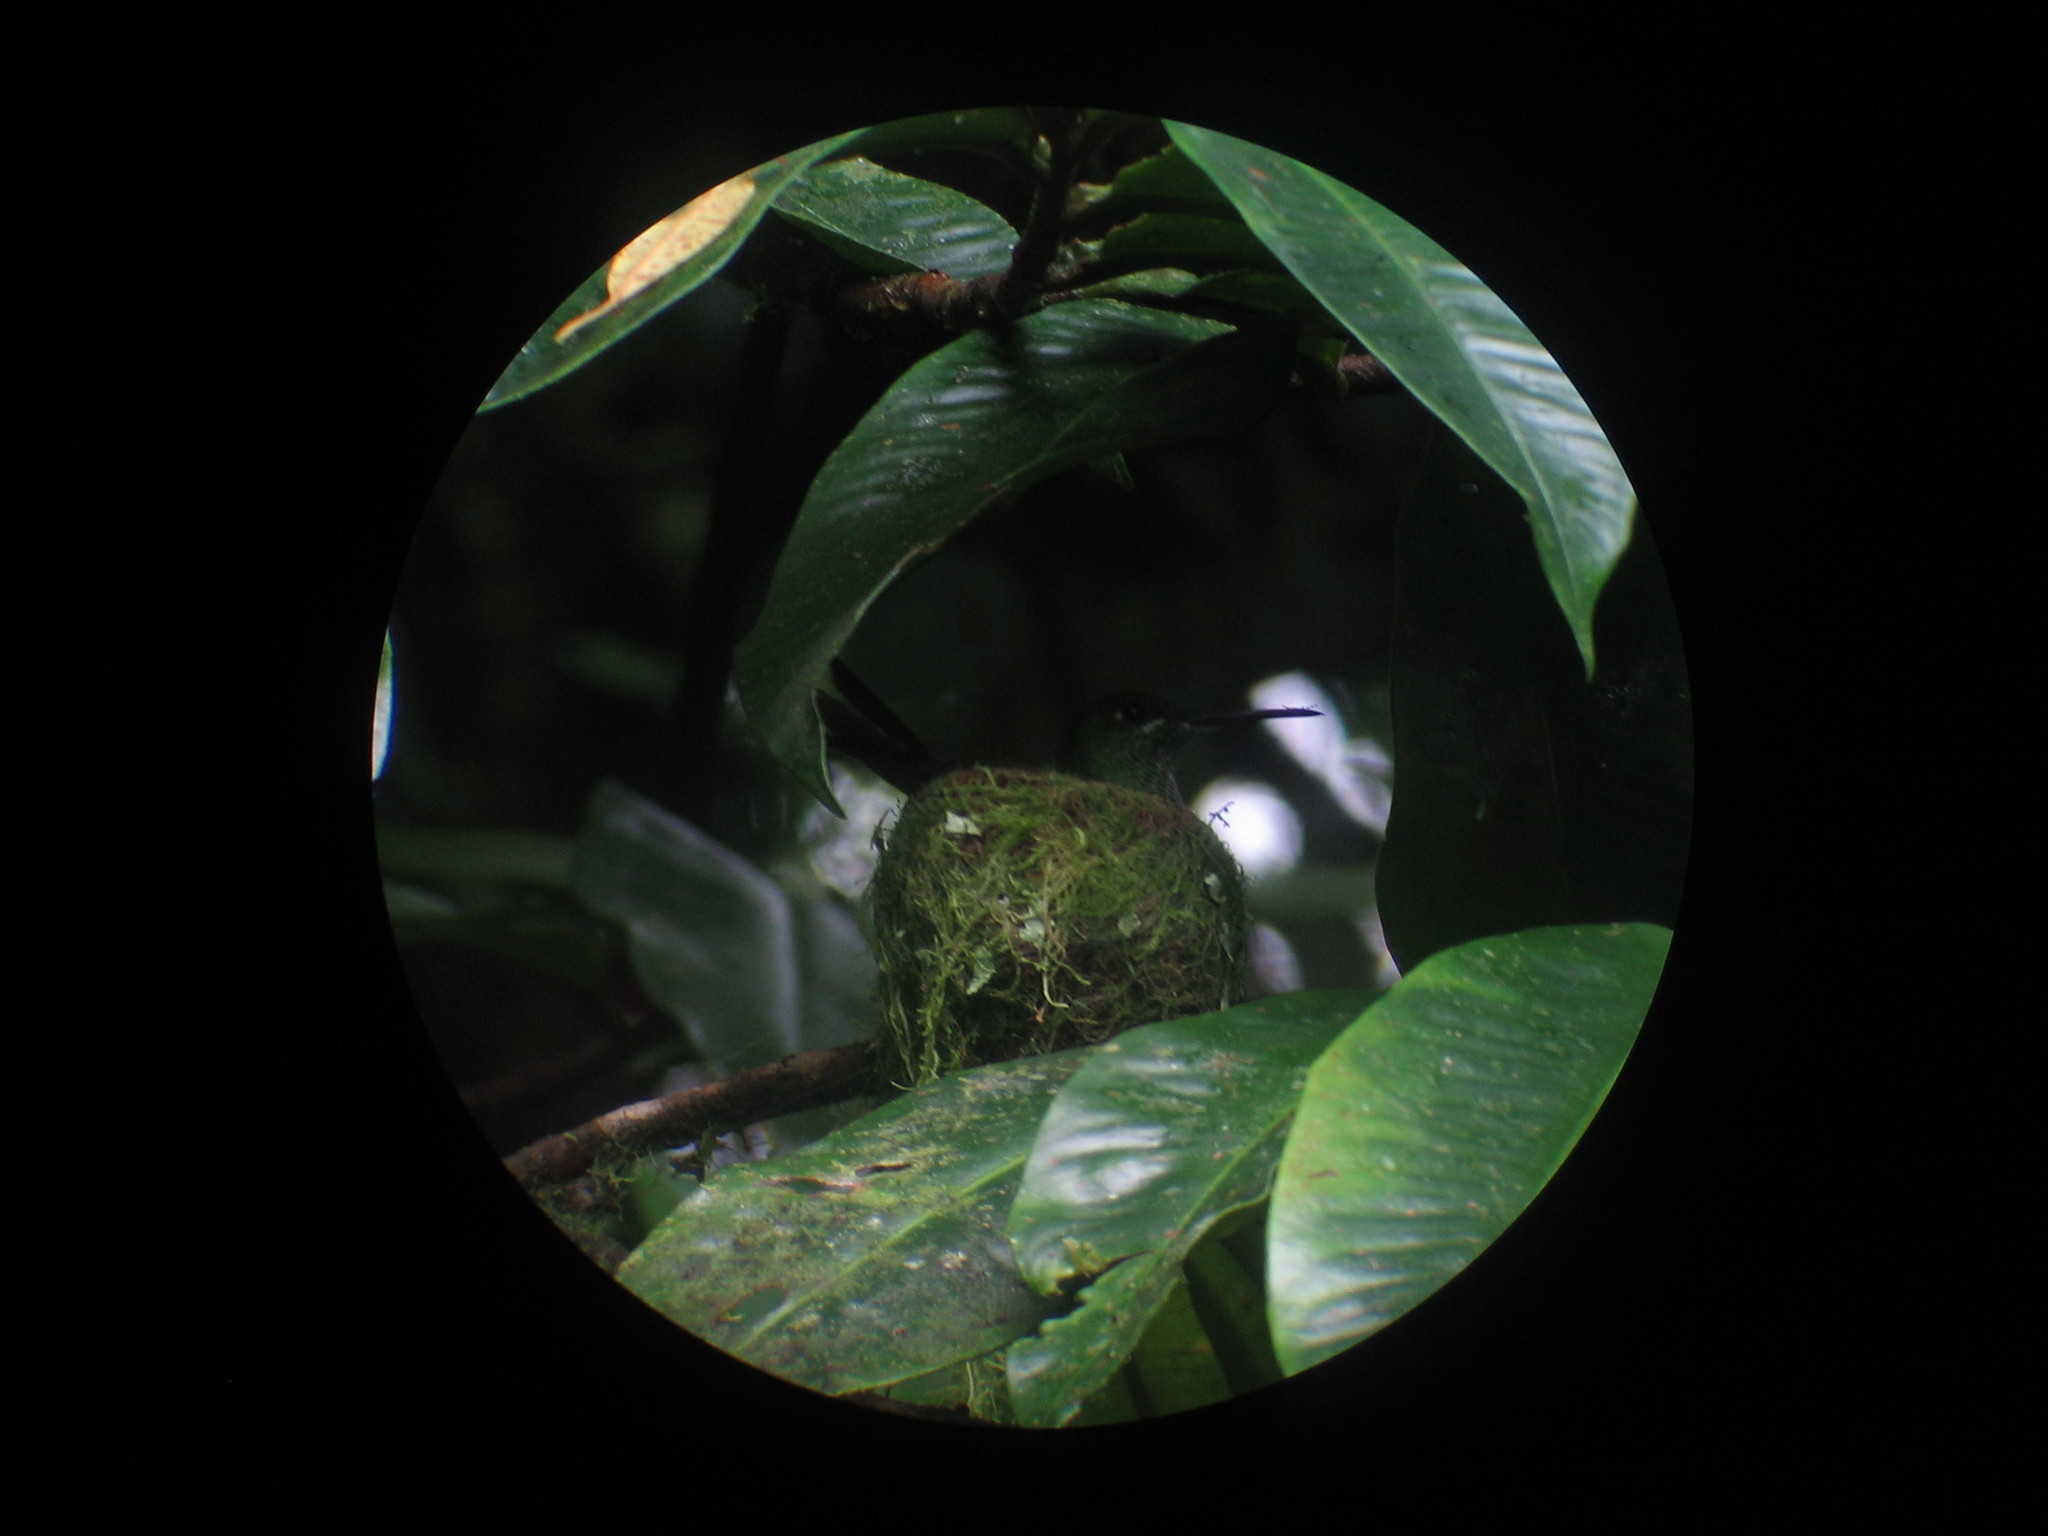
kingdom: Animalia
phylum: Chordata
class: Aves
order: Apodiformes
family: Trochilidae
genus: Heliodoxa
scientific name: Heliodoxa jacula
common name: Green-crowned brilliant
